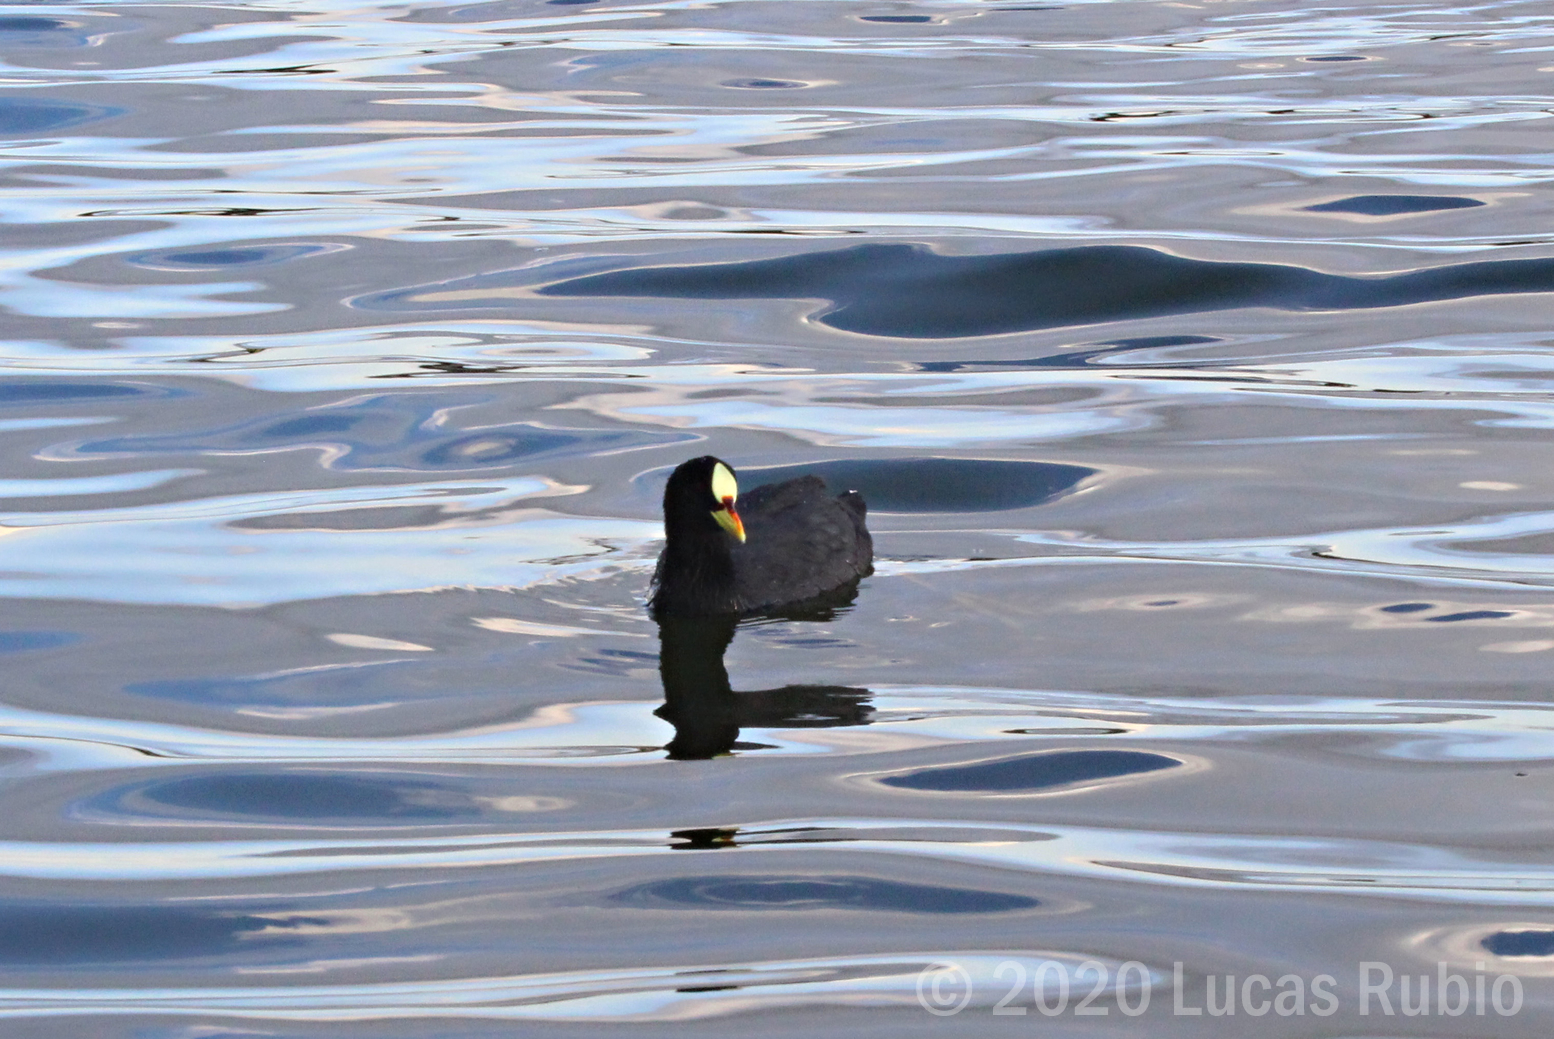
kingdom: Animalia
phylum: Chordata
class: Aves
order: Gruiformes
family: Rallidae
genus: Fulica
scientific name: Fulica armillata
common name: Red-gartered coot
